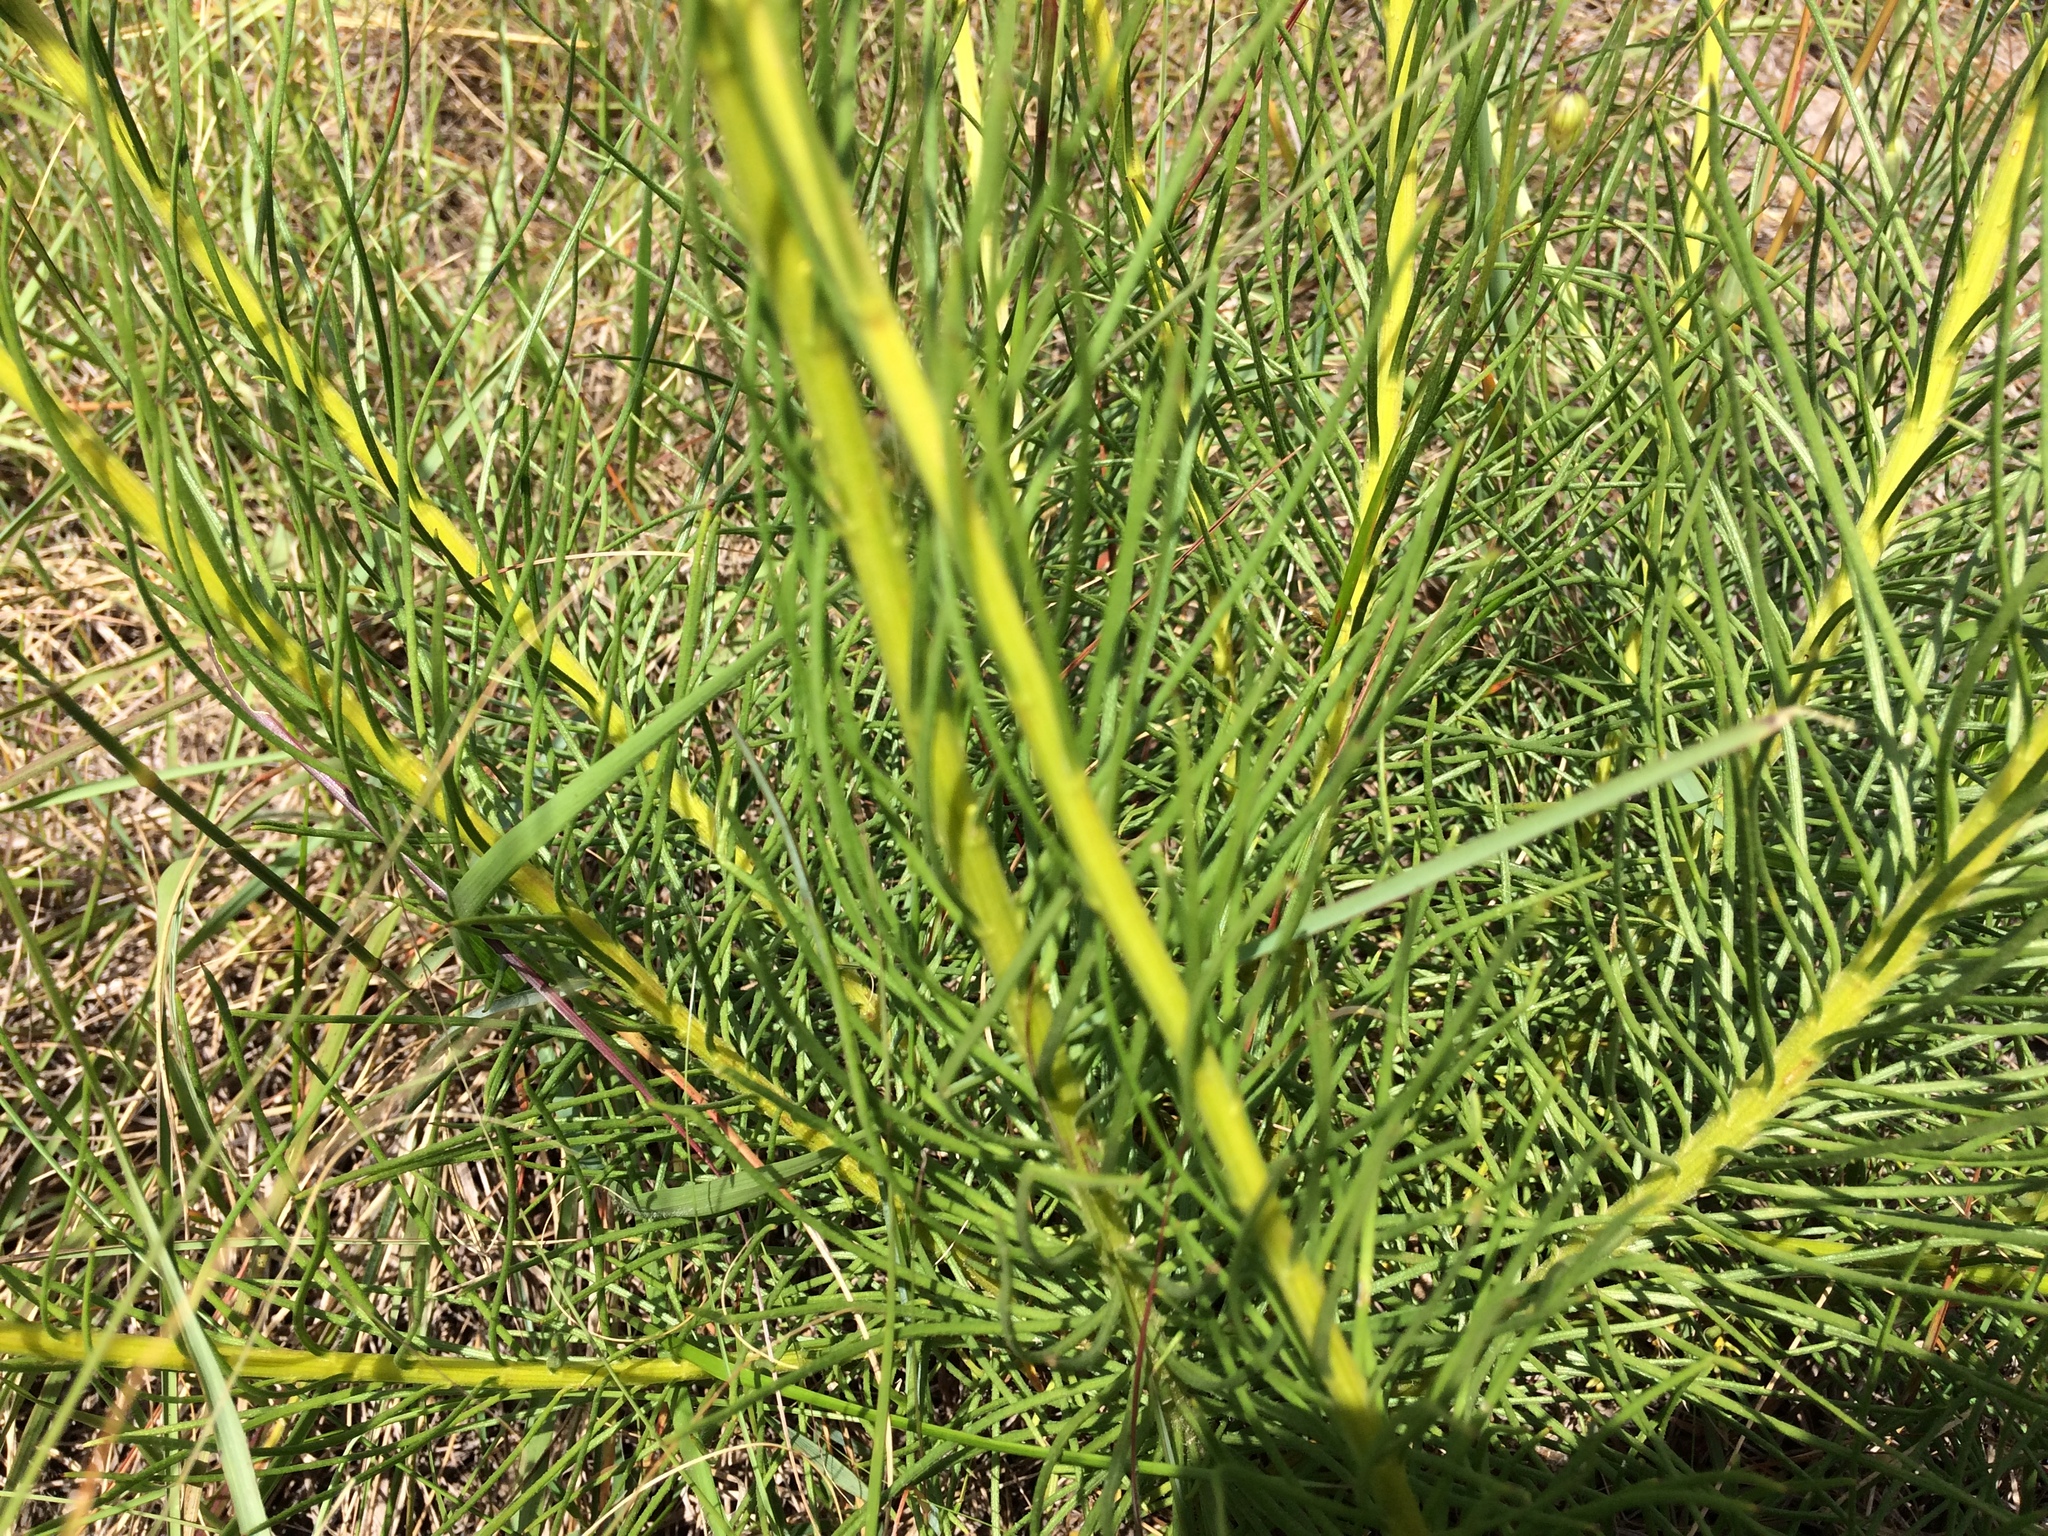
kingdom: Plantae
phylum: Tracheophyta
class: Magnoliopsida
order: Asterales
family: Asteraceae
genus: Senecio
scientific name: Senecio chrysocoma
